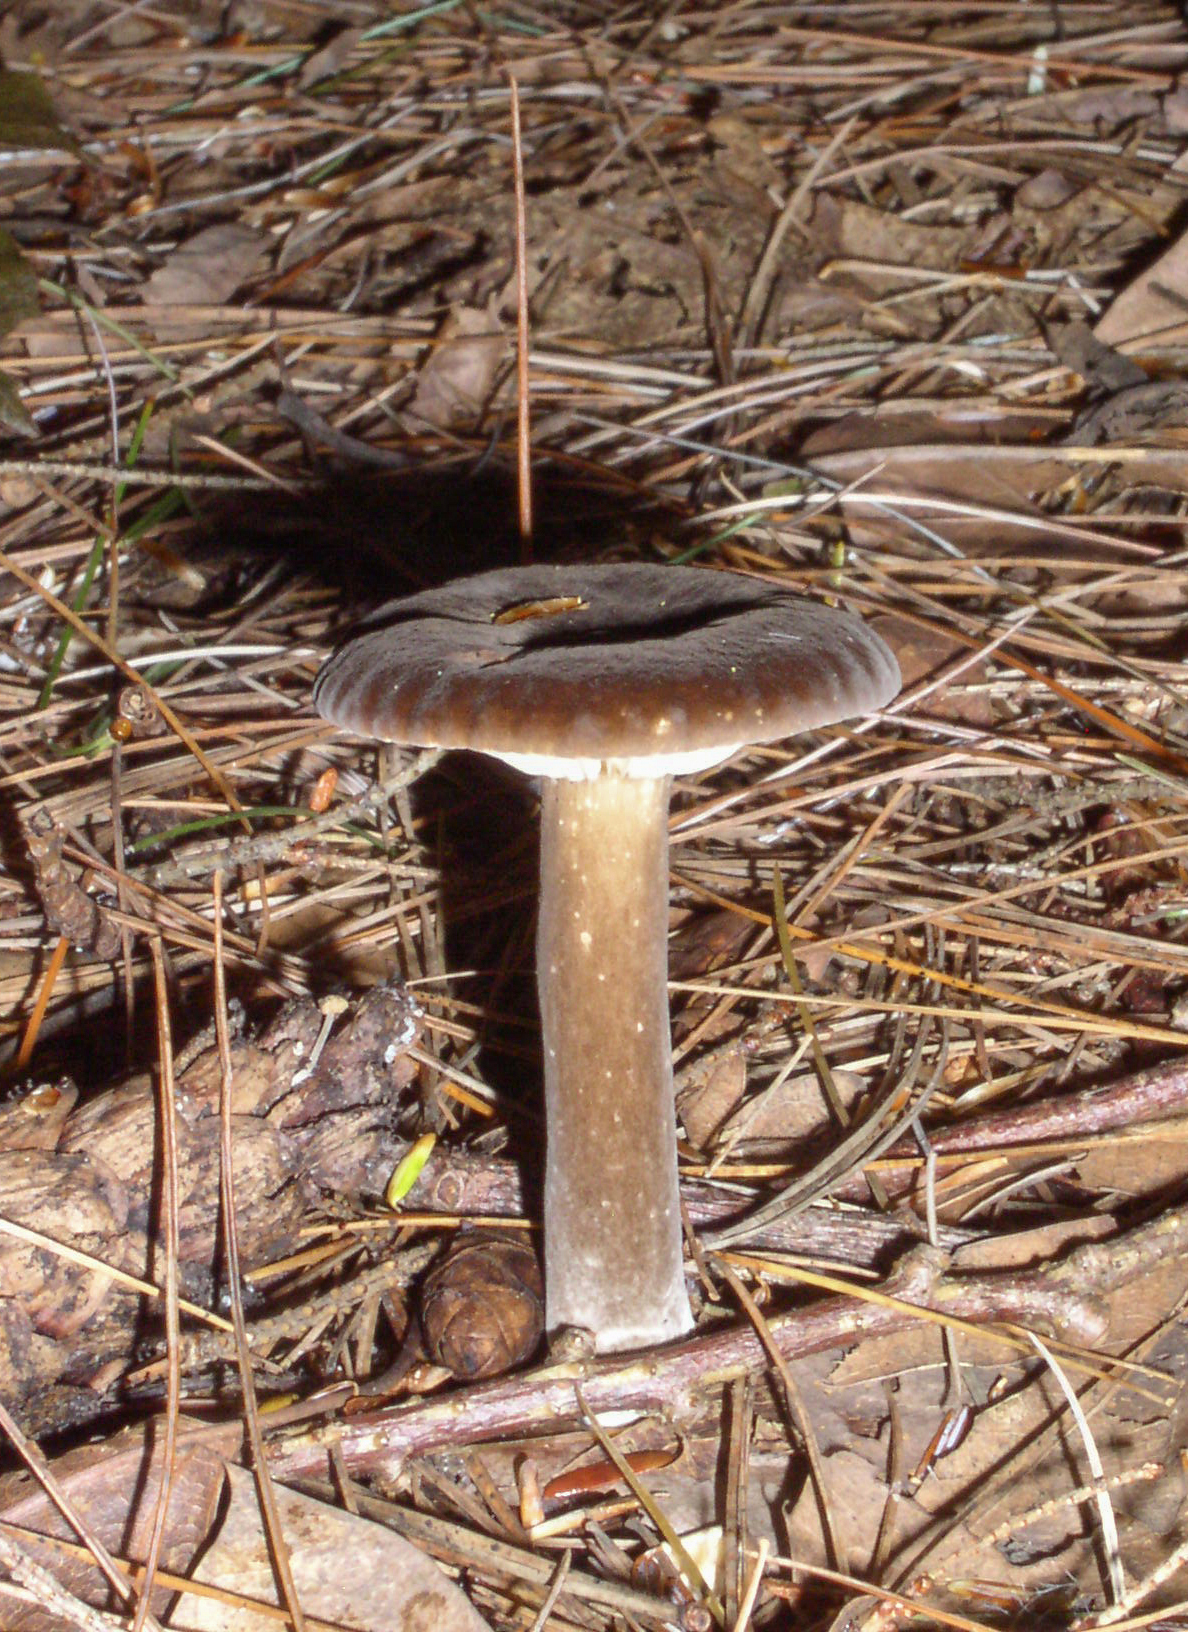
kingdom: Fungi
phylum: Basidiomycota
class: Agaricomycetes
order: Russulales
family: Russulaceae
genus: Lactarius
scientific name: Lactarius lignyotus
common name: Velvet milkcap
